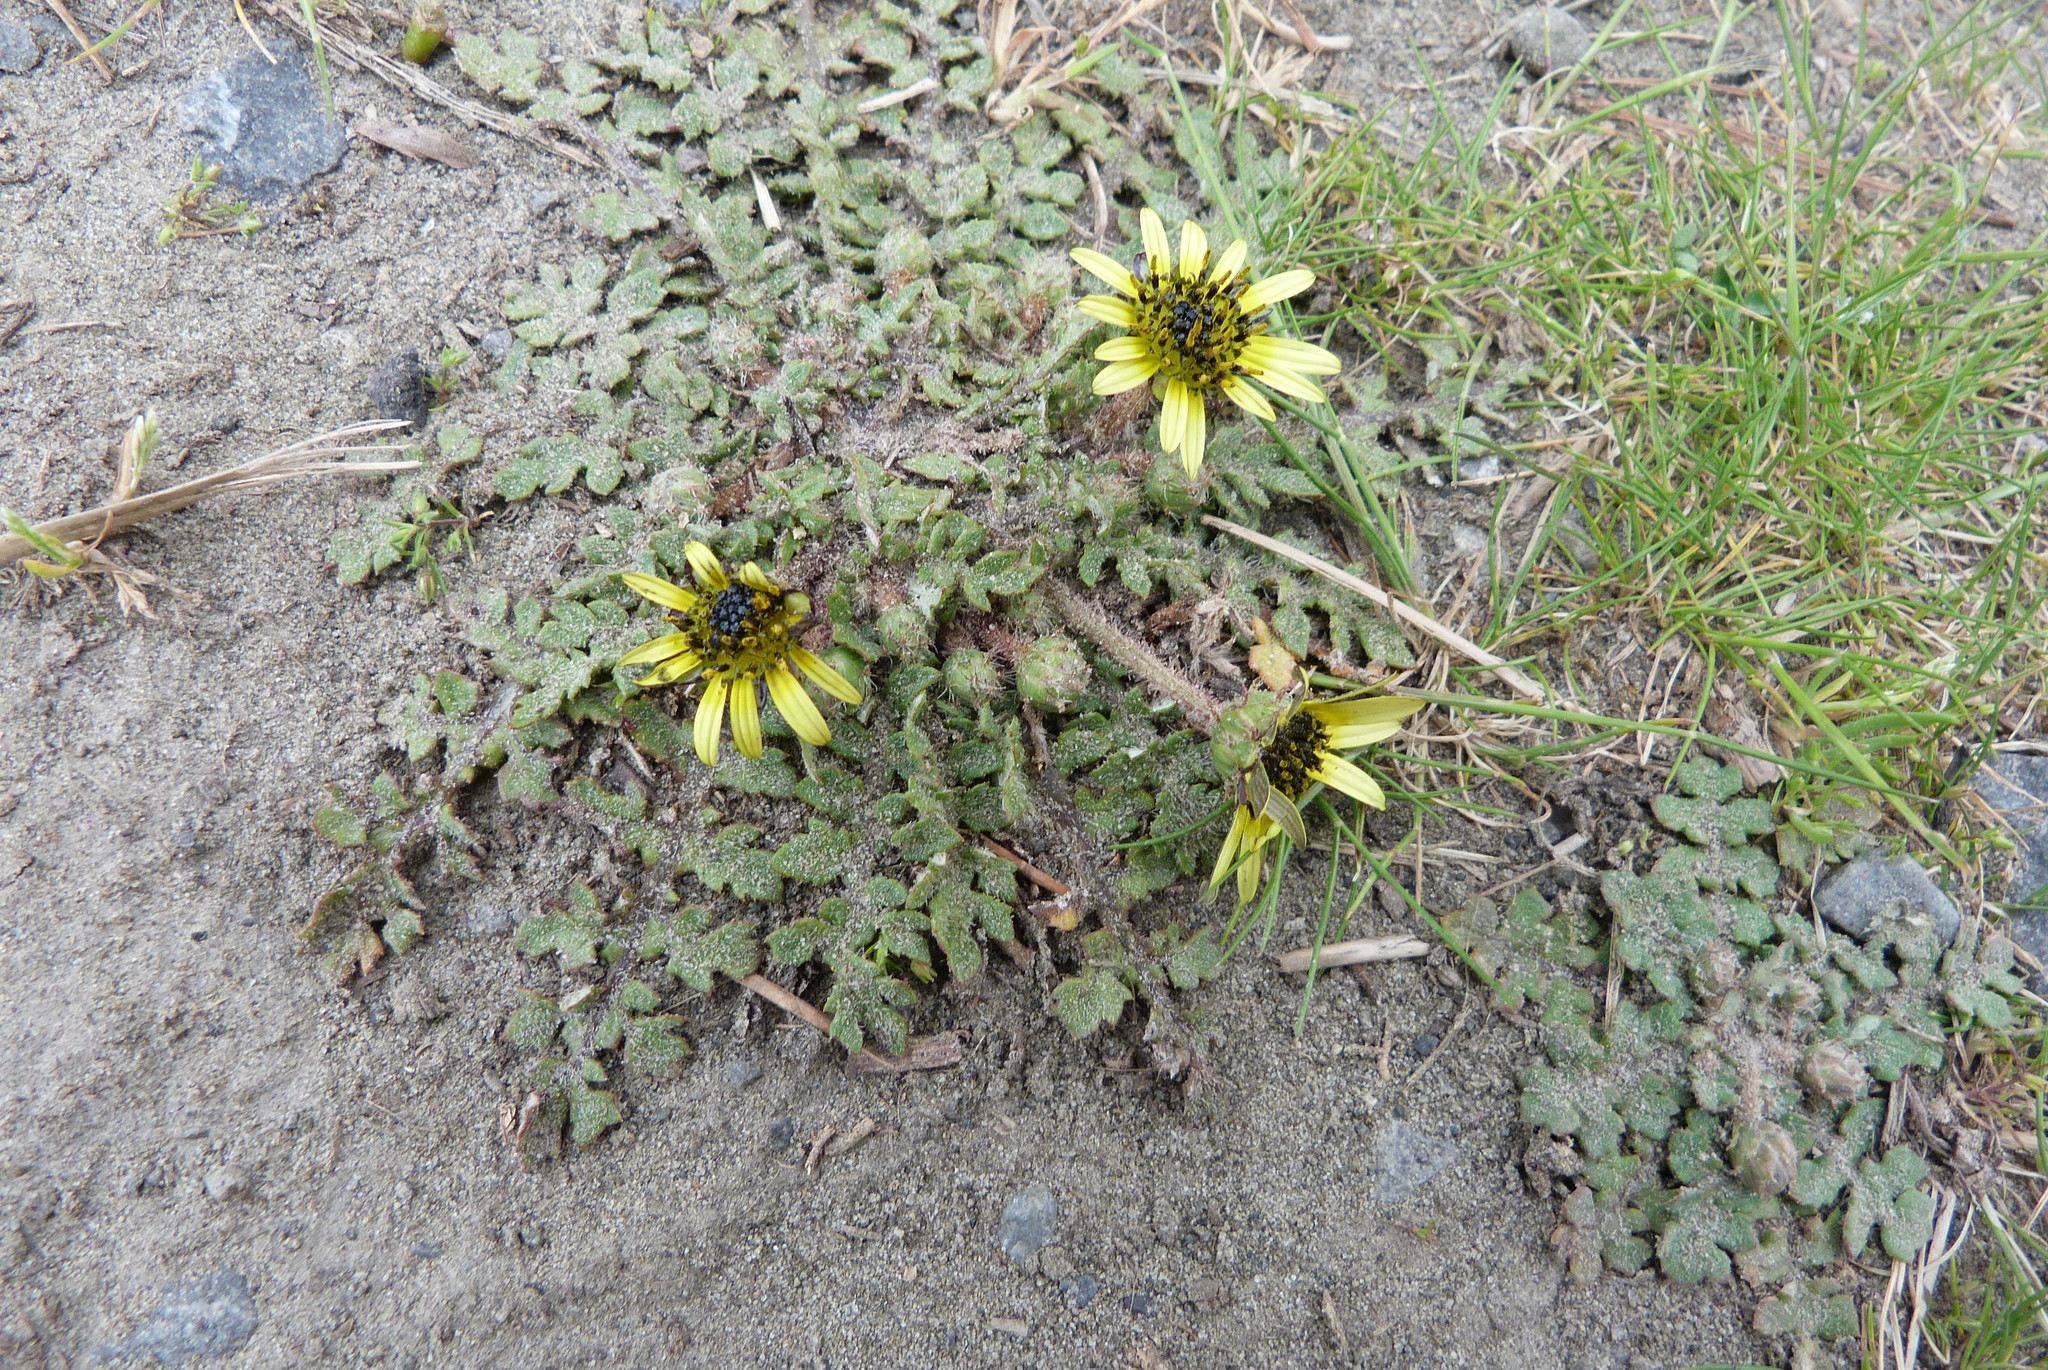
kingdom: Plantae
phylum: Tracheophyta
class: Magnoliopsida
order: Asterales
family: Asteraceae
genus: Arctotheca
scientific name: Arctotheca calendula
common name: Capeweed
